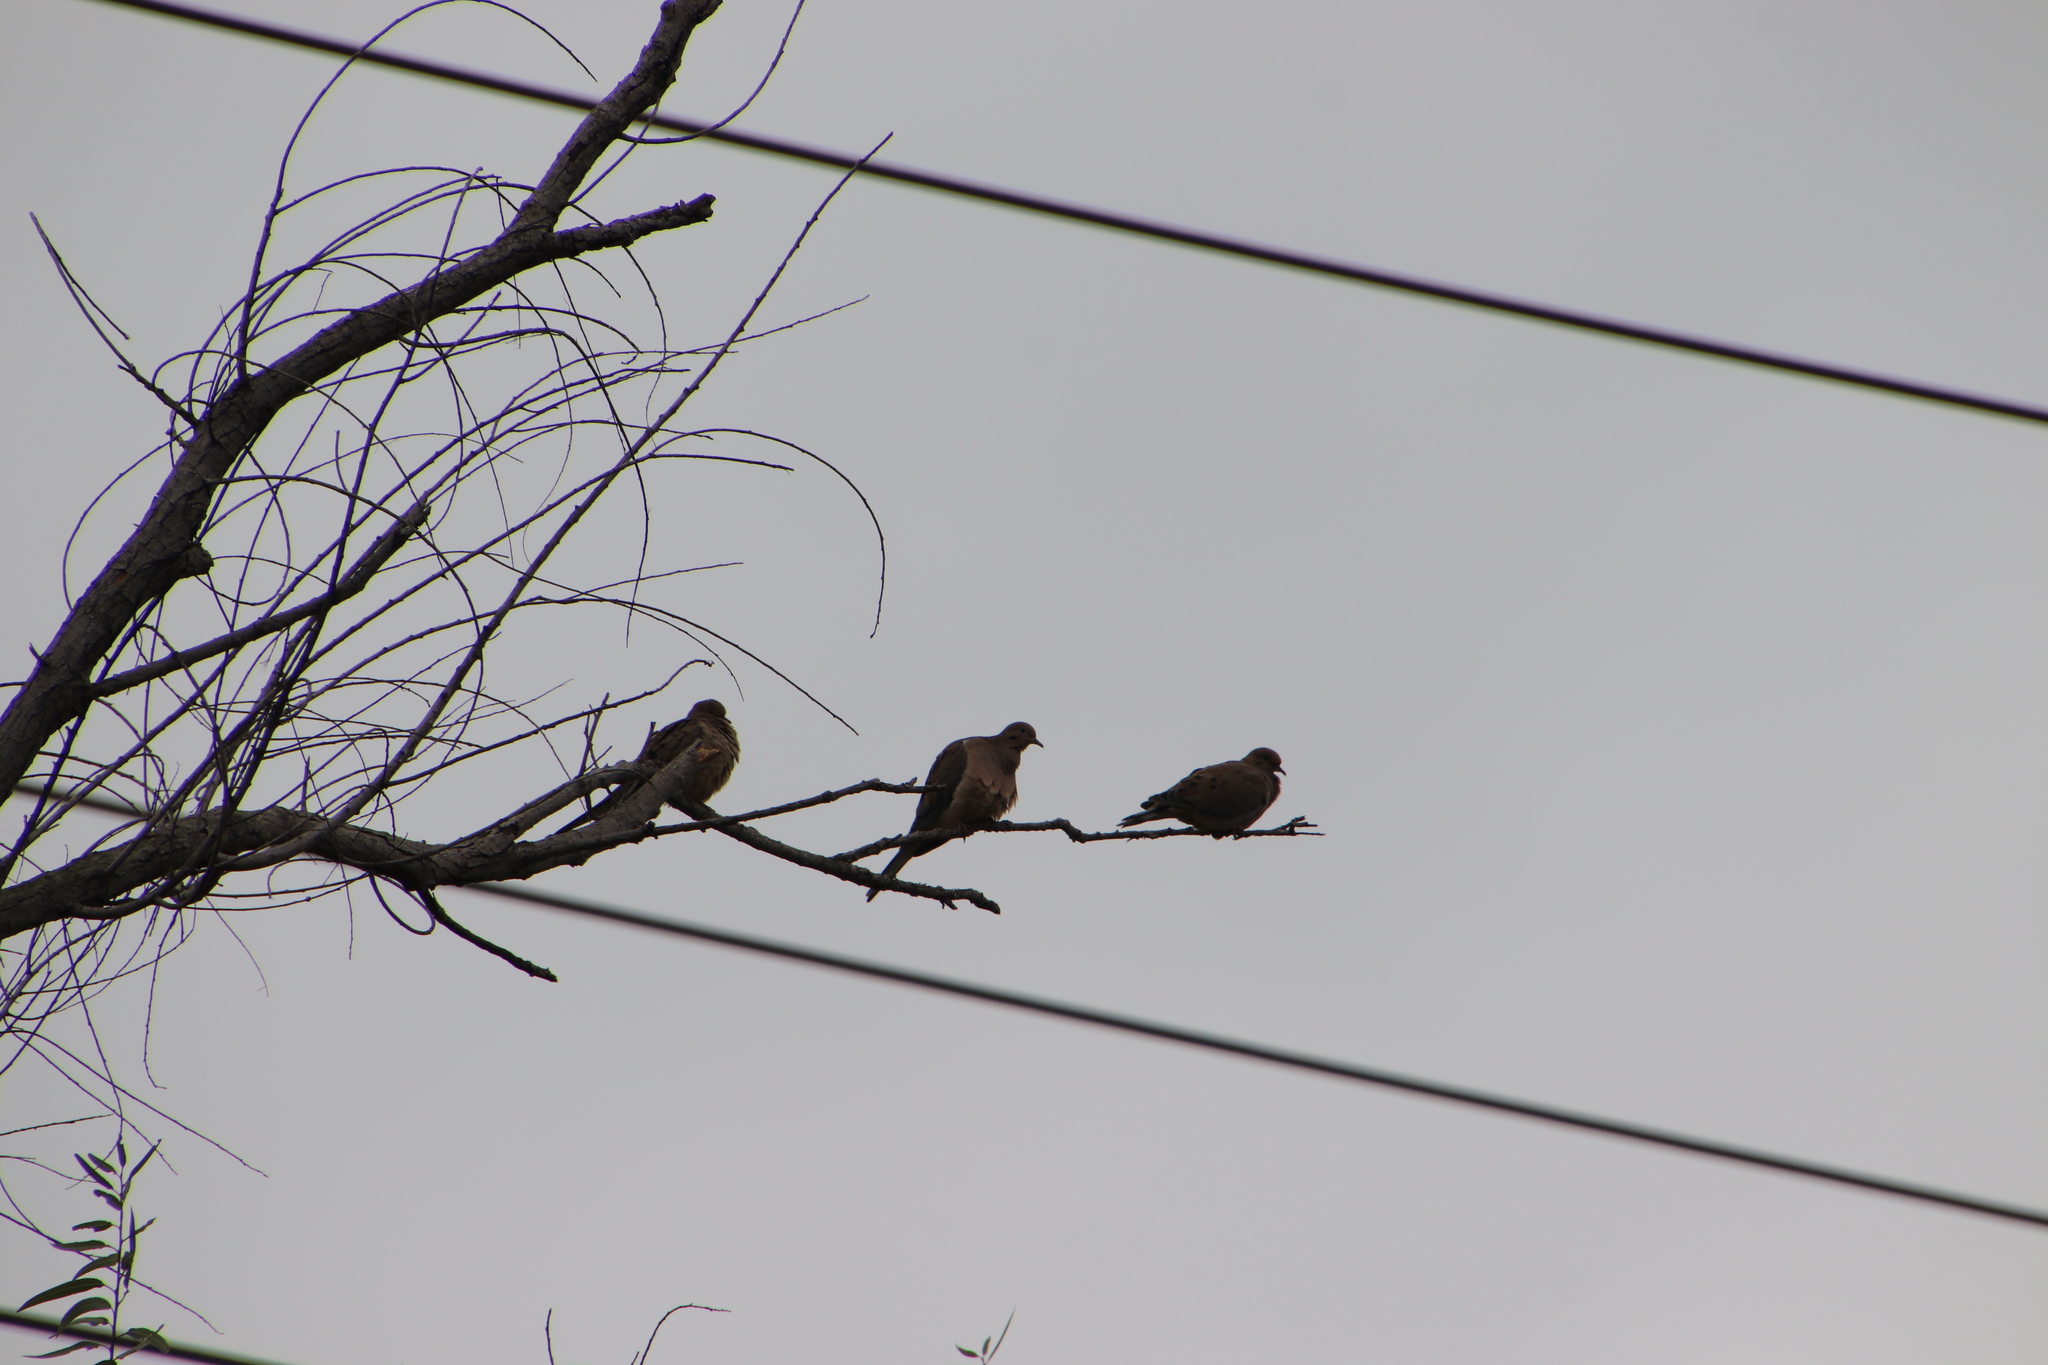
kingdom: Animalia
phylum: Chordata
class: Aves
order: Columbiformes
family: Columbidae
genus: Zenaida
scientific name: Zenaida macroura
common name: Mourning dove
